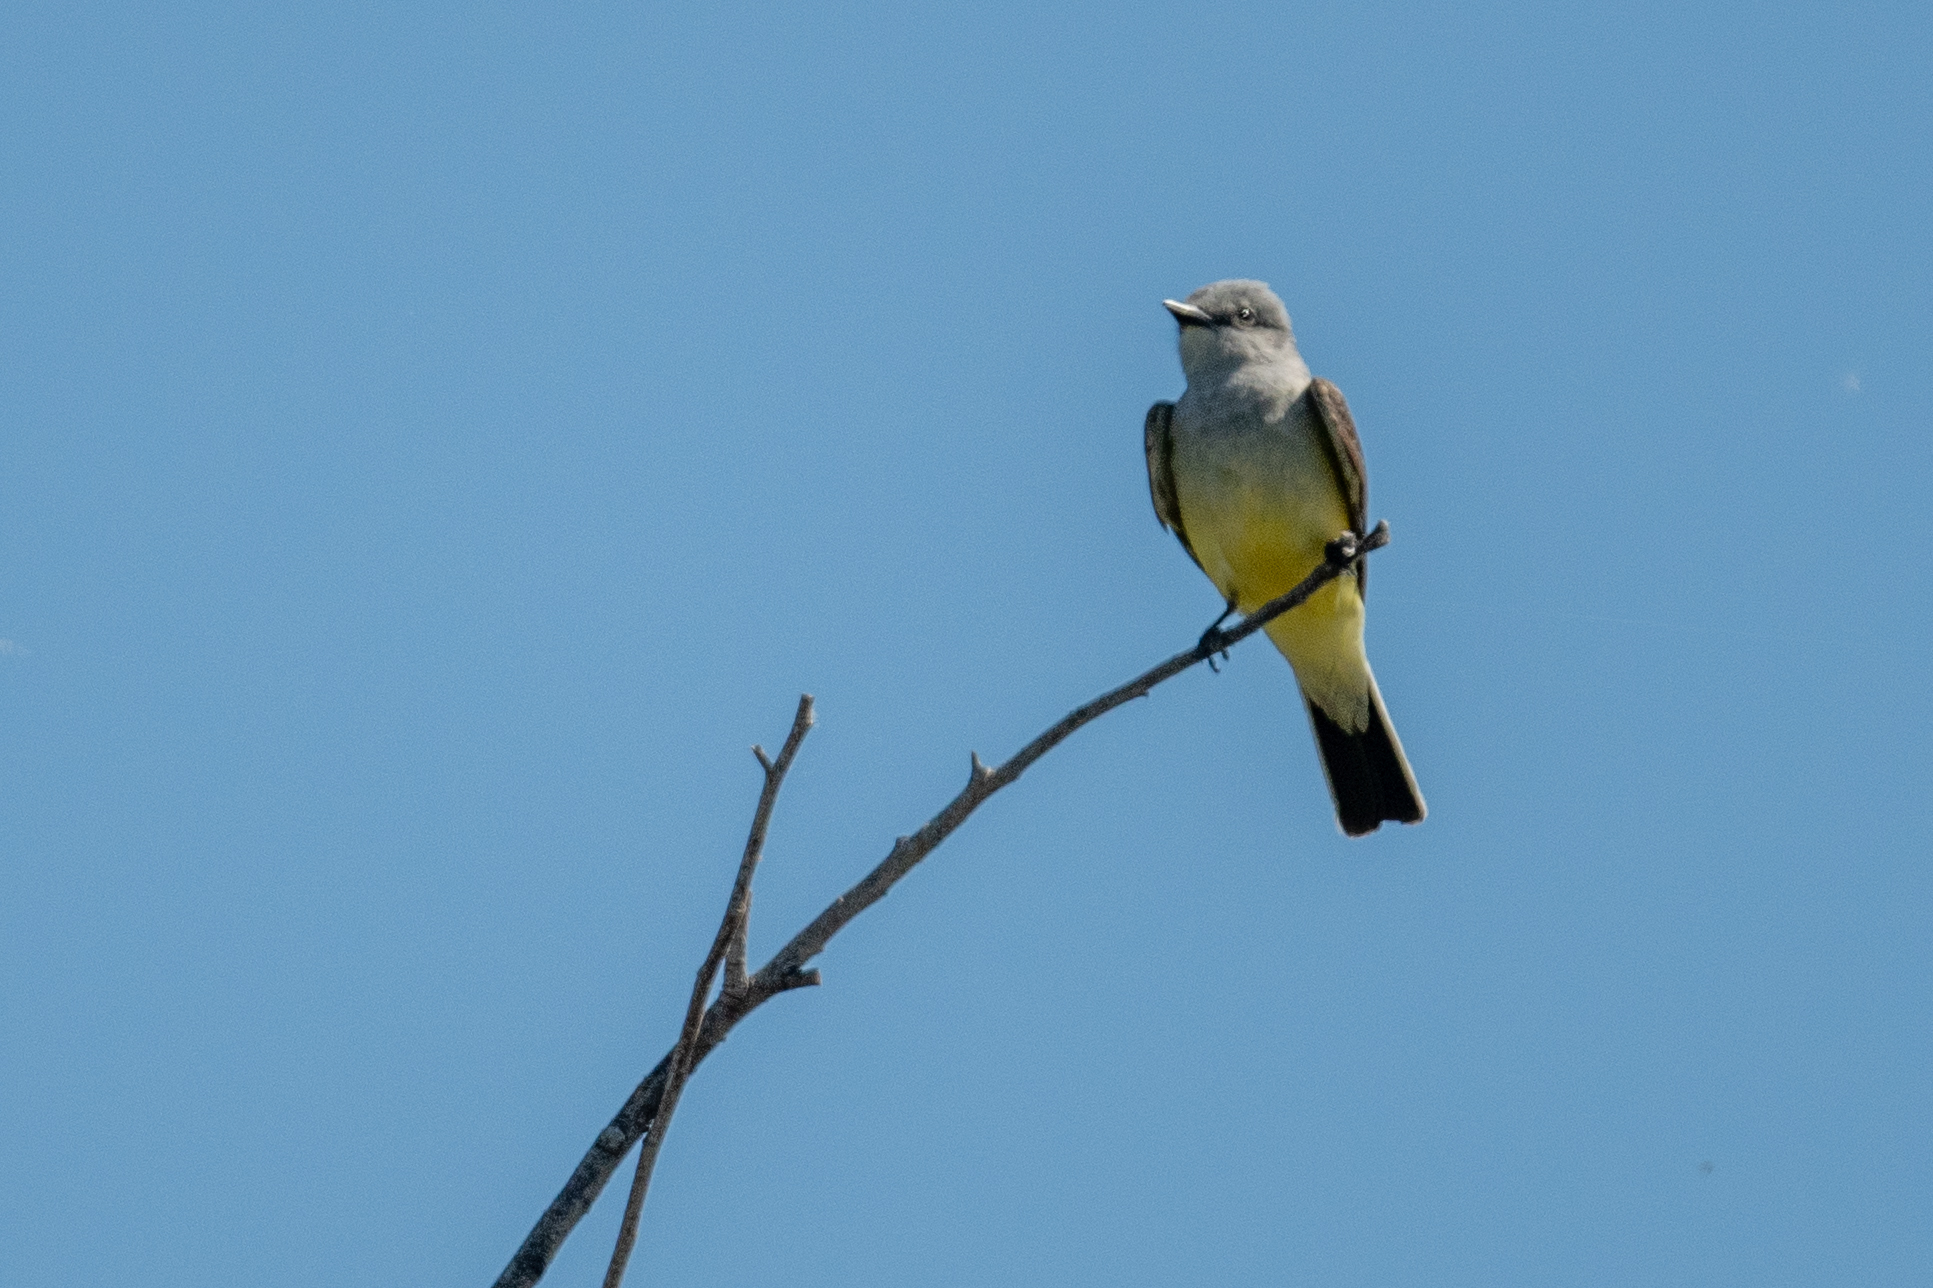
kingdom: Animalia
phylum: Chordata
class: Aves
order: Passeriformes
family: Tyrannidae
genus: Tyrannus
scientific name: Tyrannus verticalis
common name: Western kingbird
